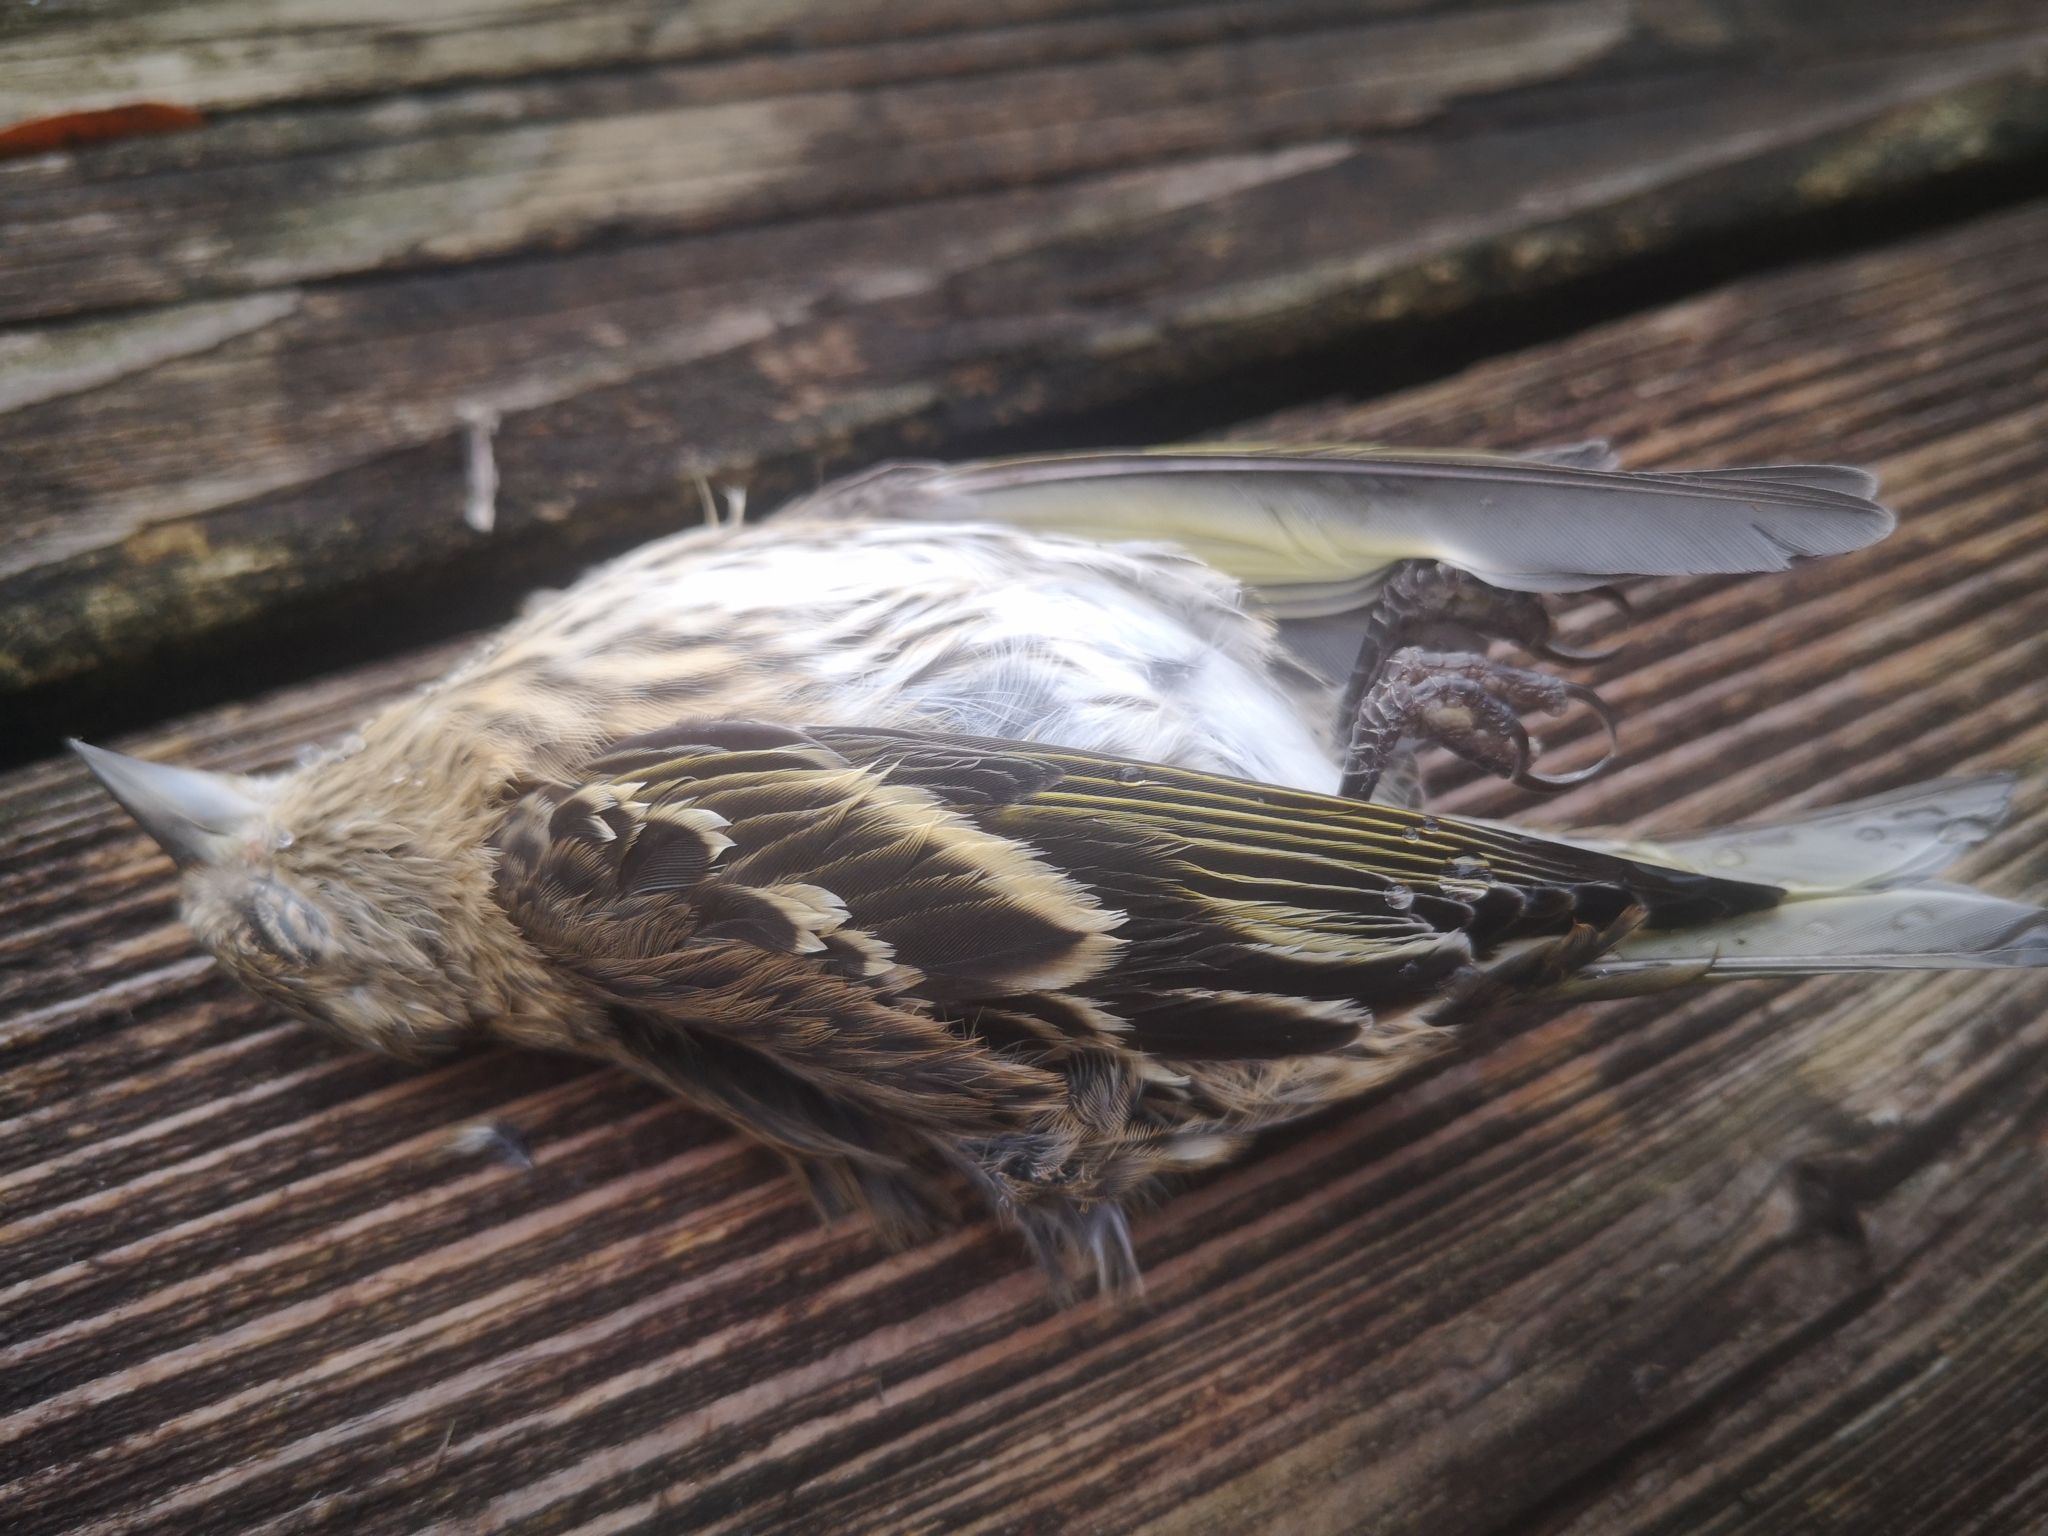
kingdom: Animalia
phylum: Chordata
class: Aves
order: Passeriformes
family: Fringillidae
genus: Spinus
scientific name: Spinus pinus
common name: Pine siskin
